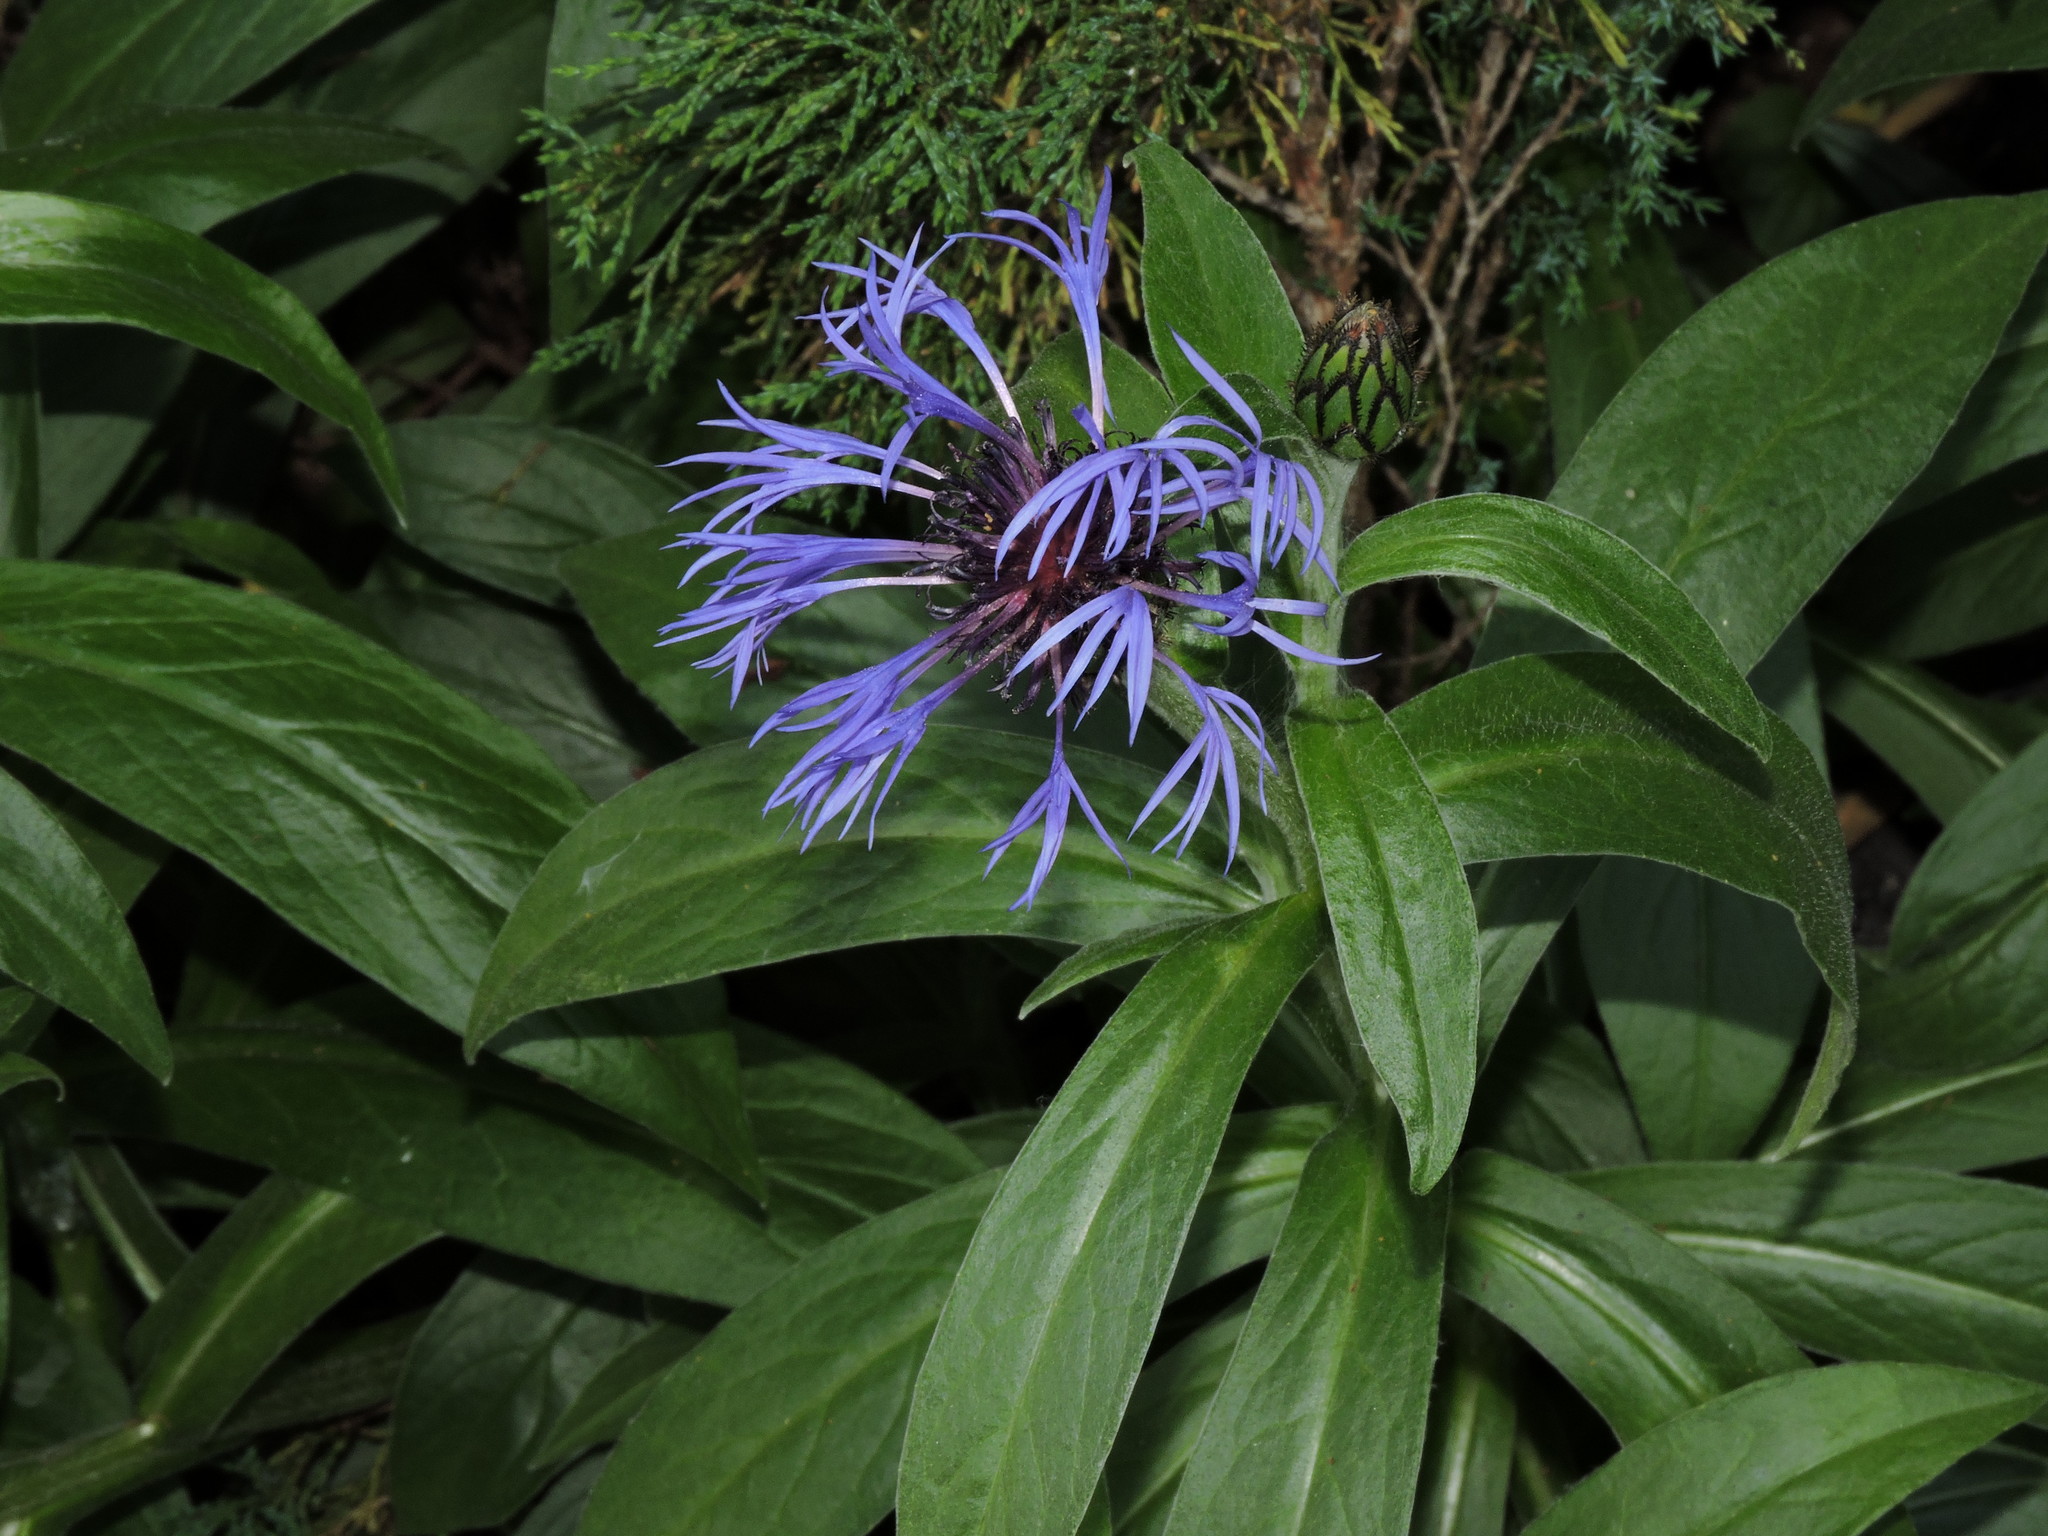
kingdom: Plantae
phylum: Tracheophyta
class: Magnoliopsida
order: Asterales
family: Asteraceae
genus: Centaurea
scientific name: Centaurea montana
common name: Perennial cornflower
